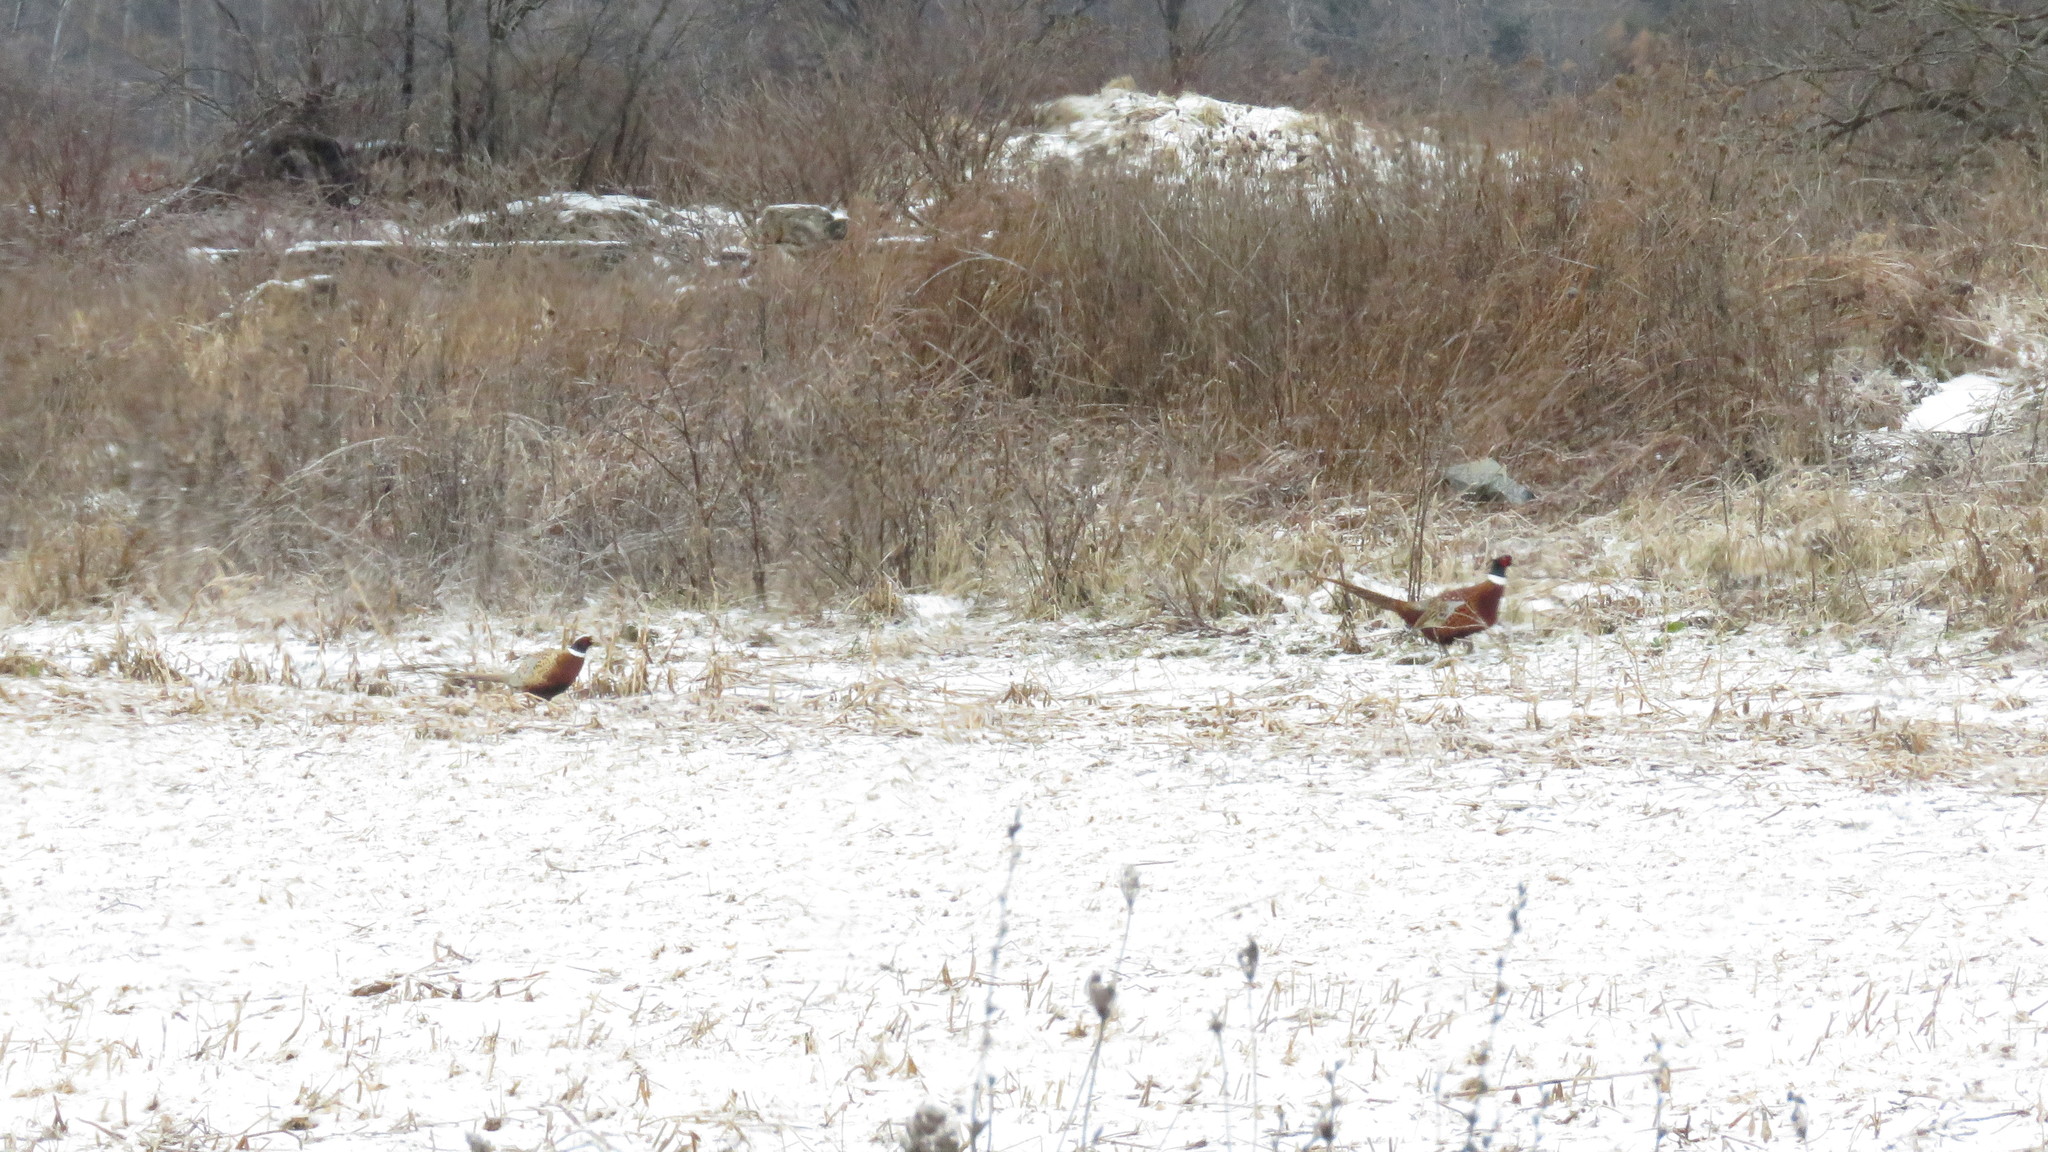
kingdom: Animalia
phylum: Chordata
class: Aves
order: Galliformes
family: Phasianidae
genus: Phasianus
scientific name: Phasianus colchicus
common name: Common pheasant
